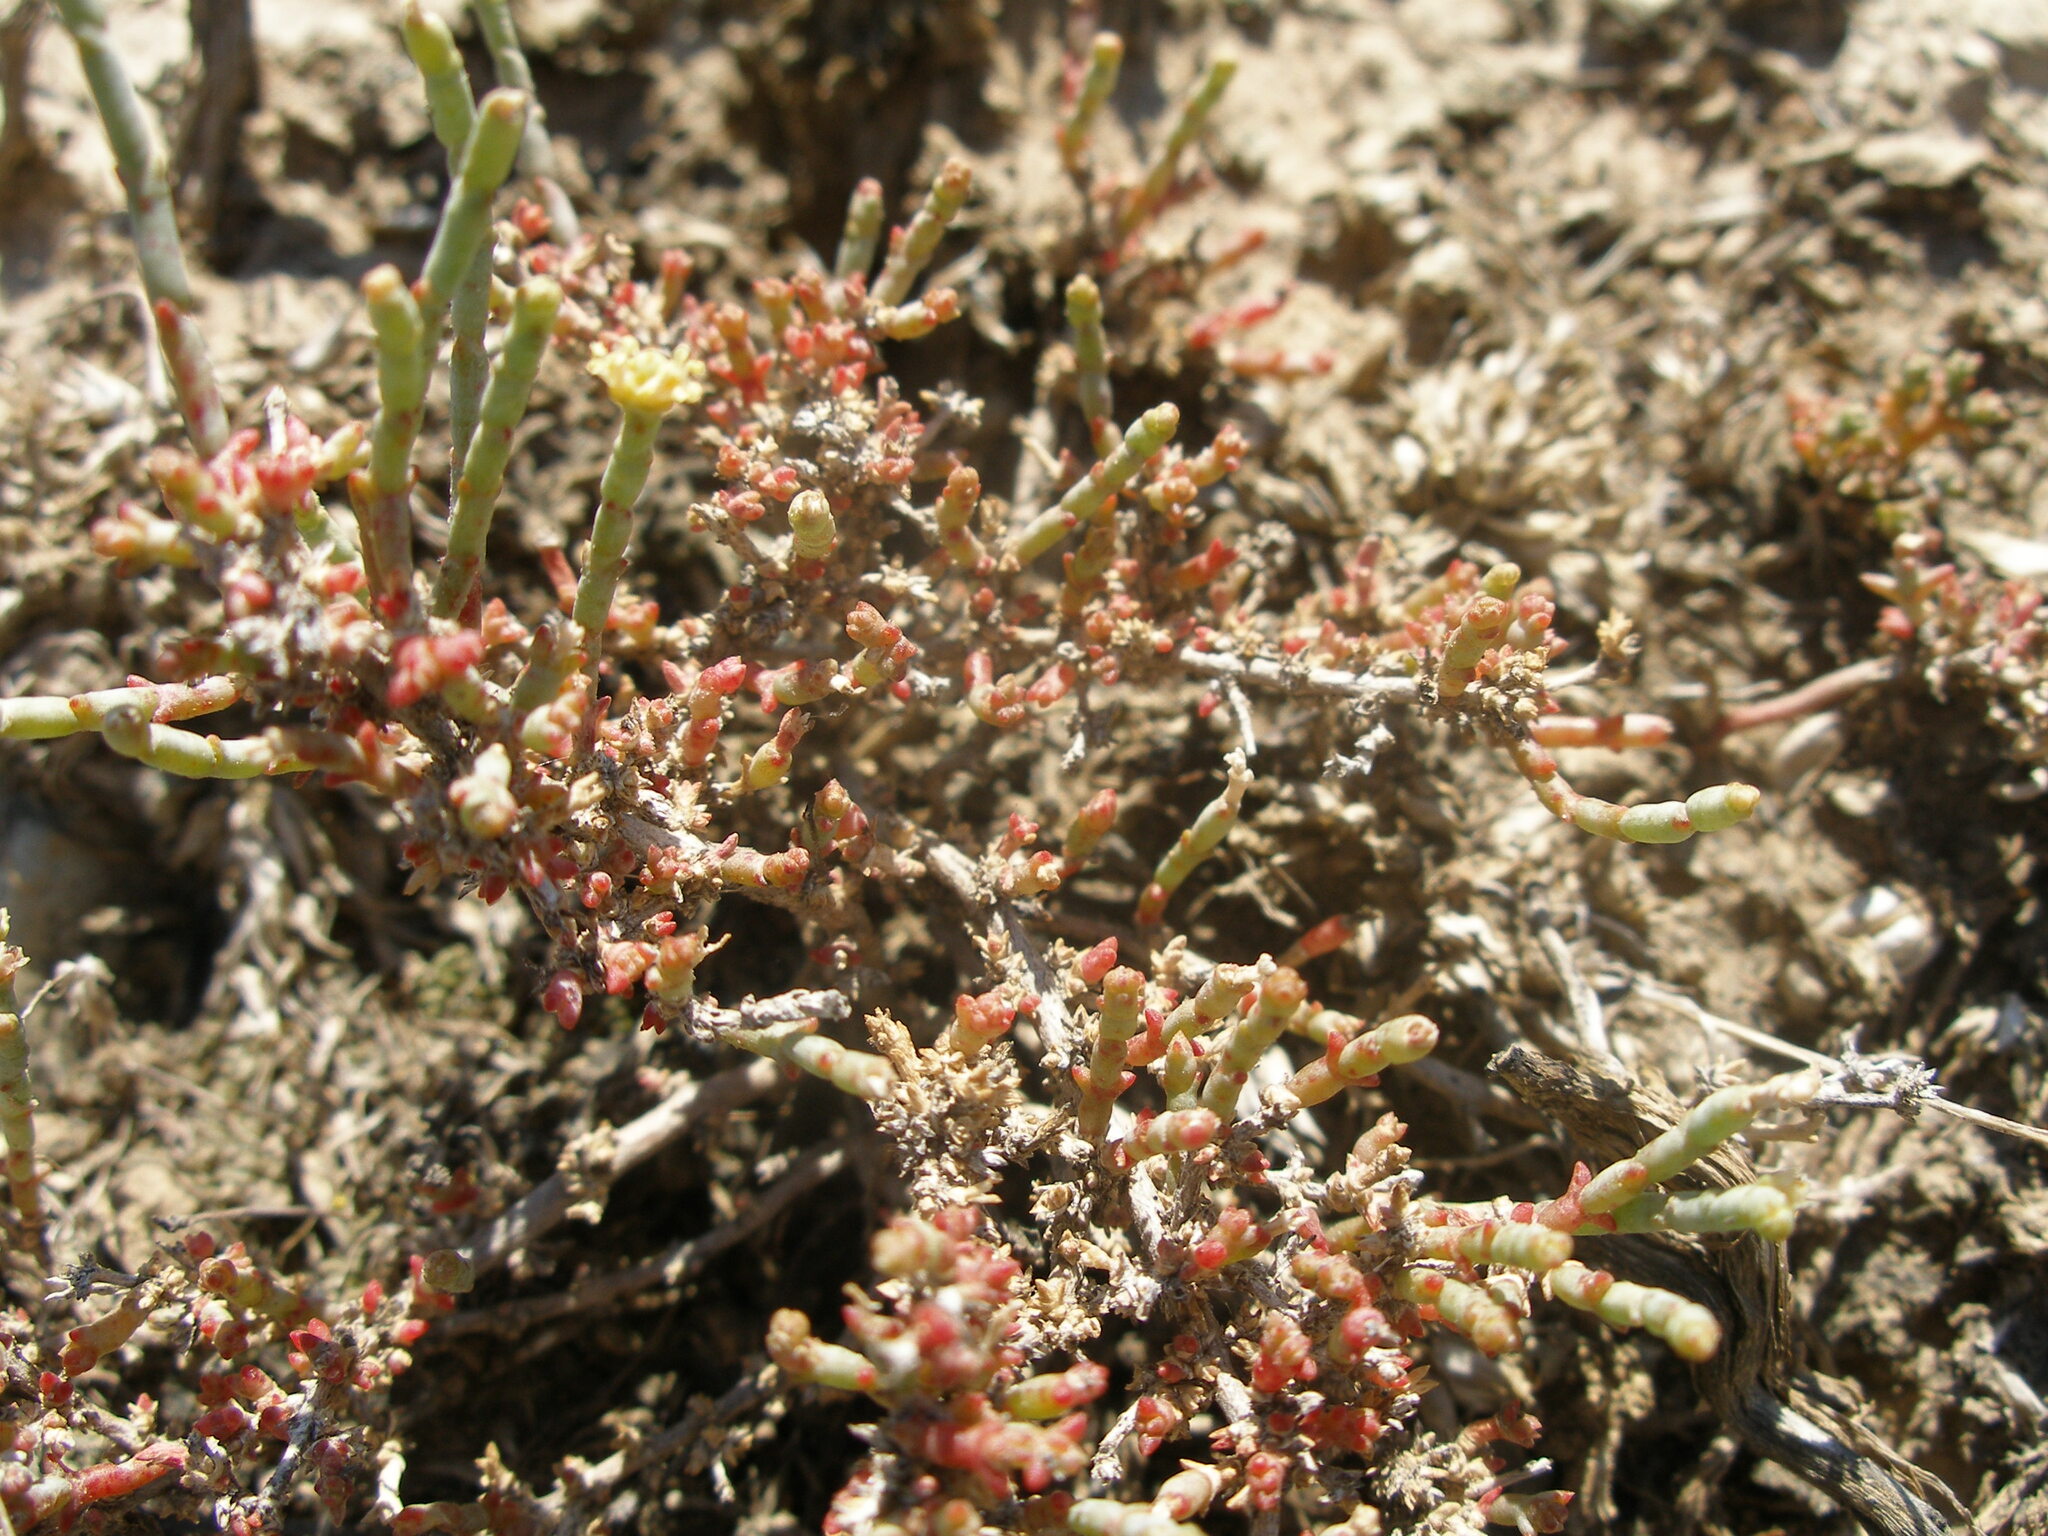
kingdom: Plantae
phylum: Tracheophyta
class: Magnoliopsida
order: Caryophyllales
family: Amaranthaceae
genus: Anabasis
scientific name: Anabasis salsa
